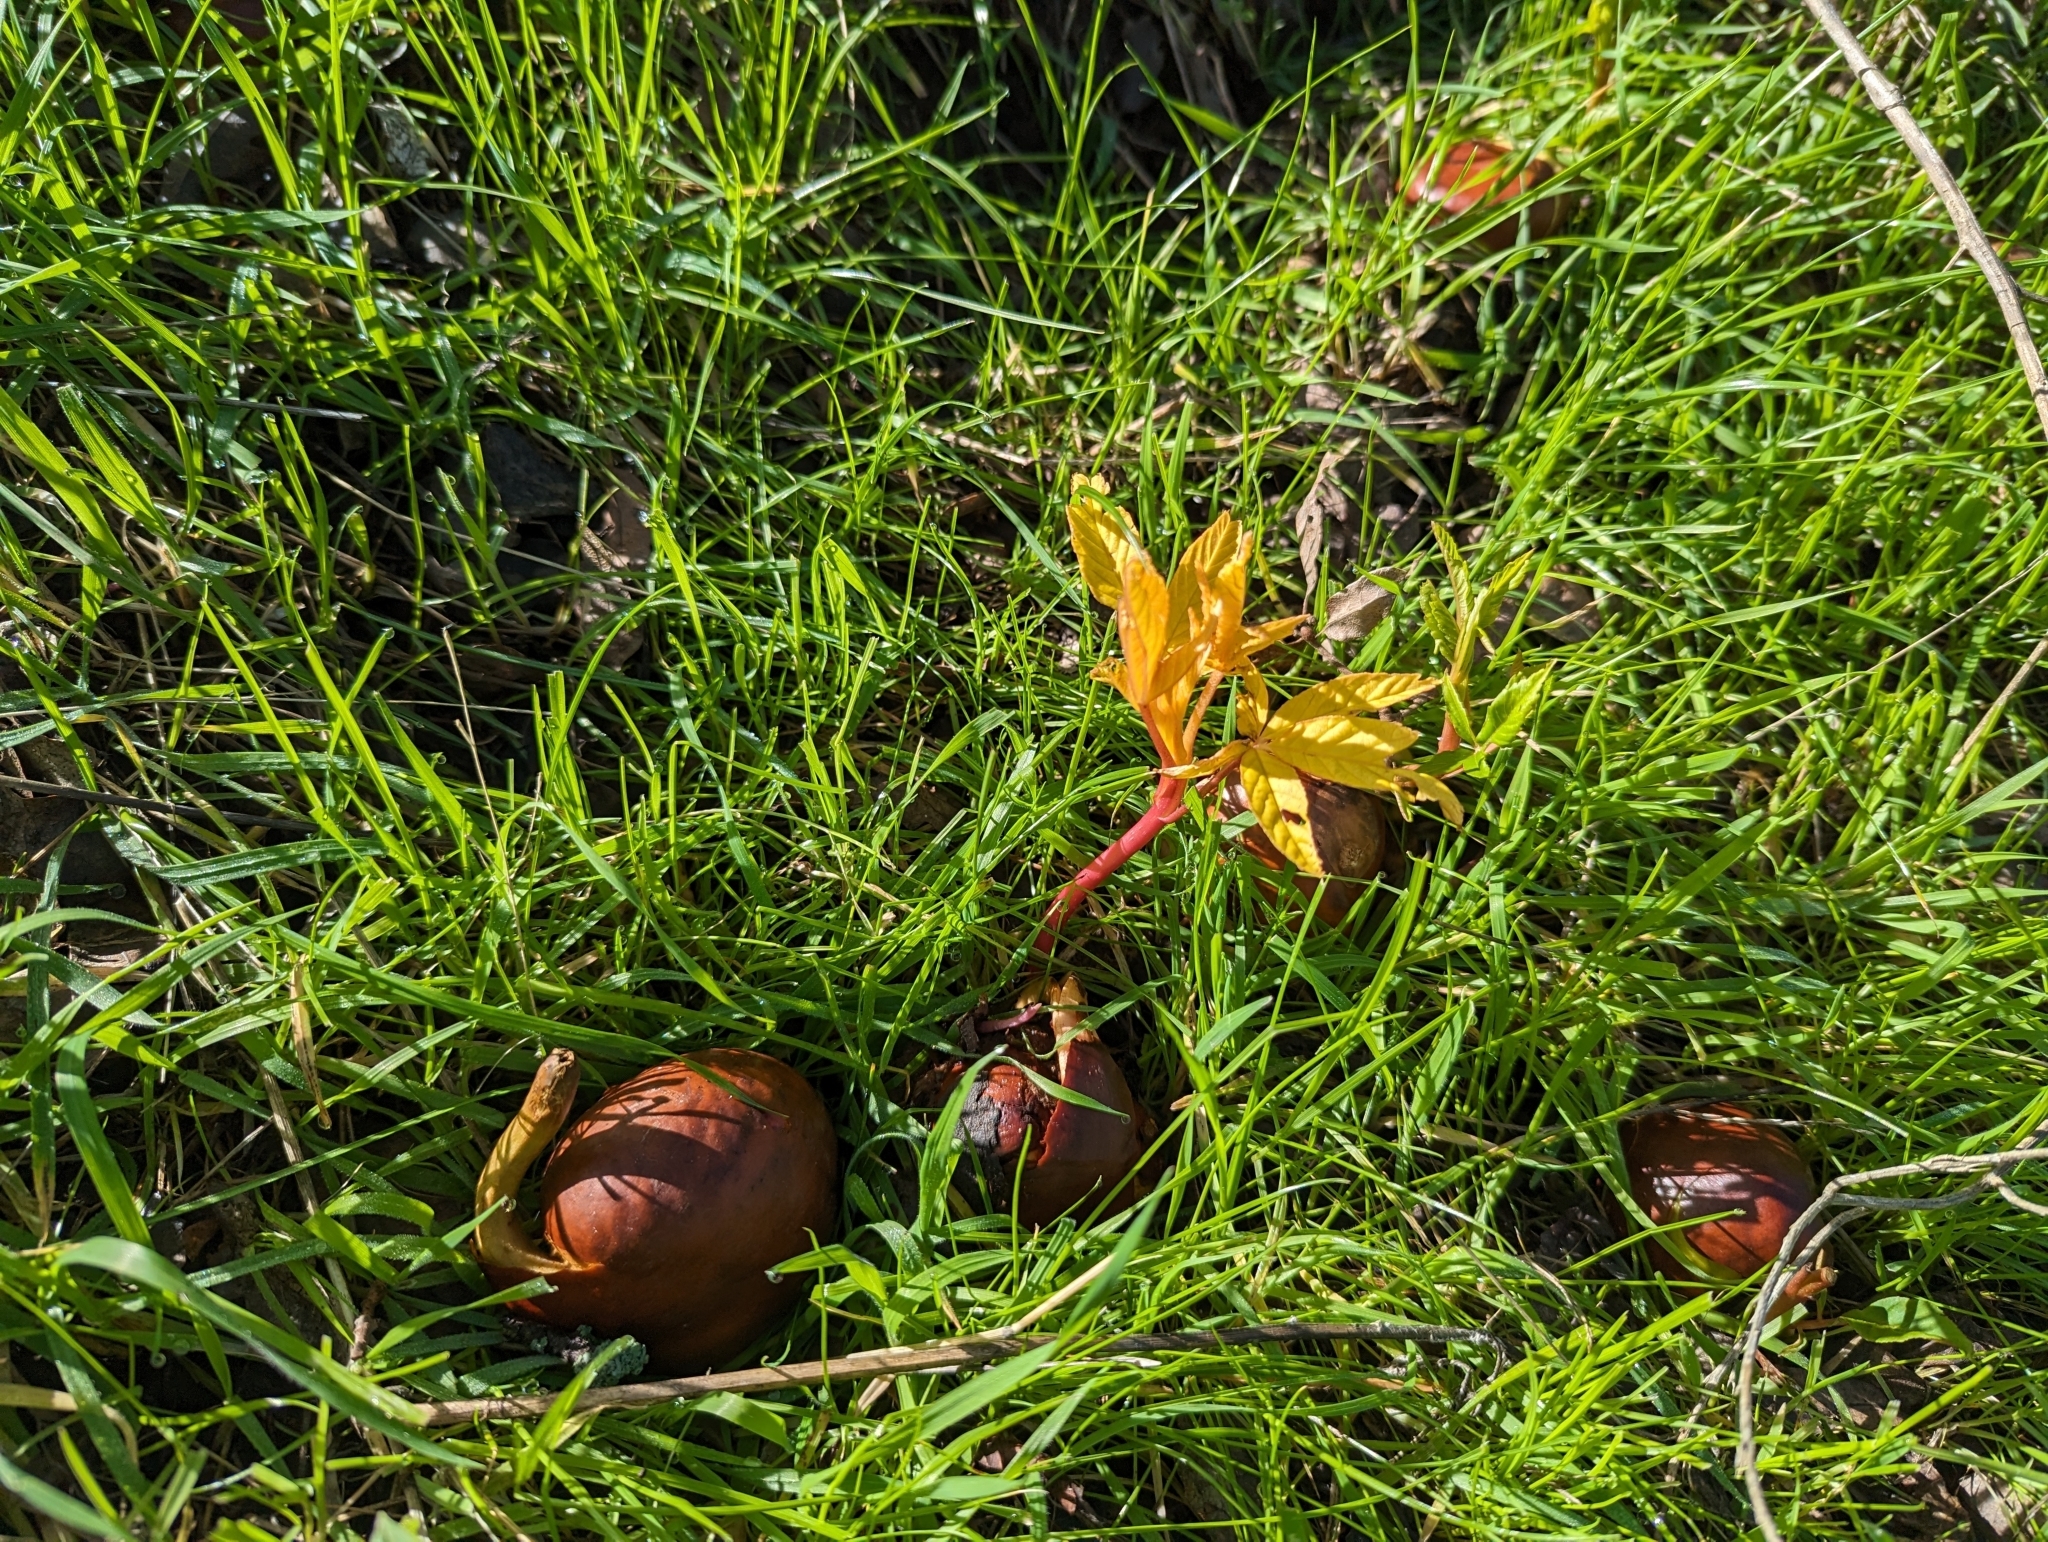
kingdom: Plantae
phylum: Tracheophyta
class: Magnoliopsida
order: Sapindales
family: Sapindaceae
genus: Aesculus
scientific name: Aesculus californica
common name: California buckeye
